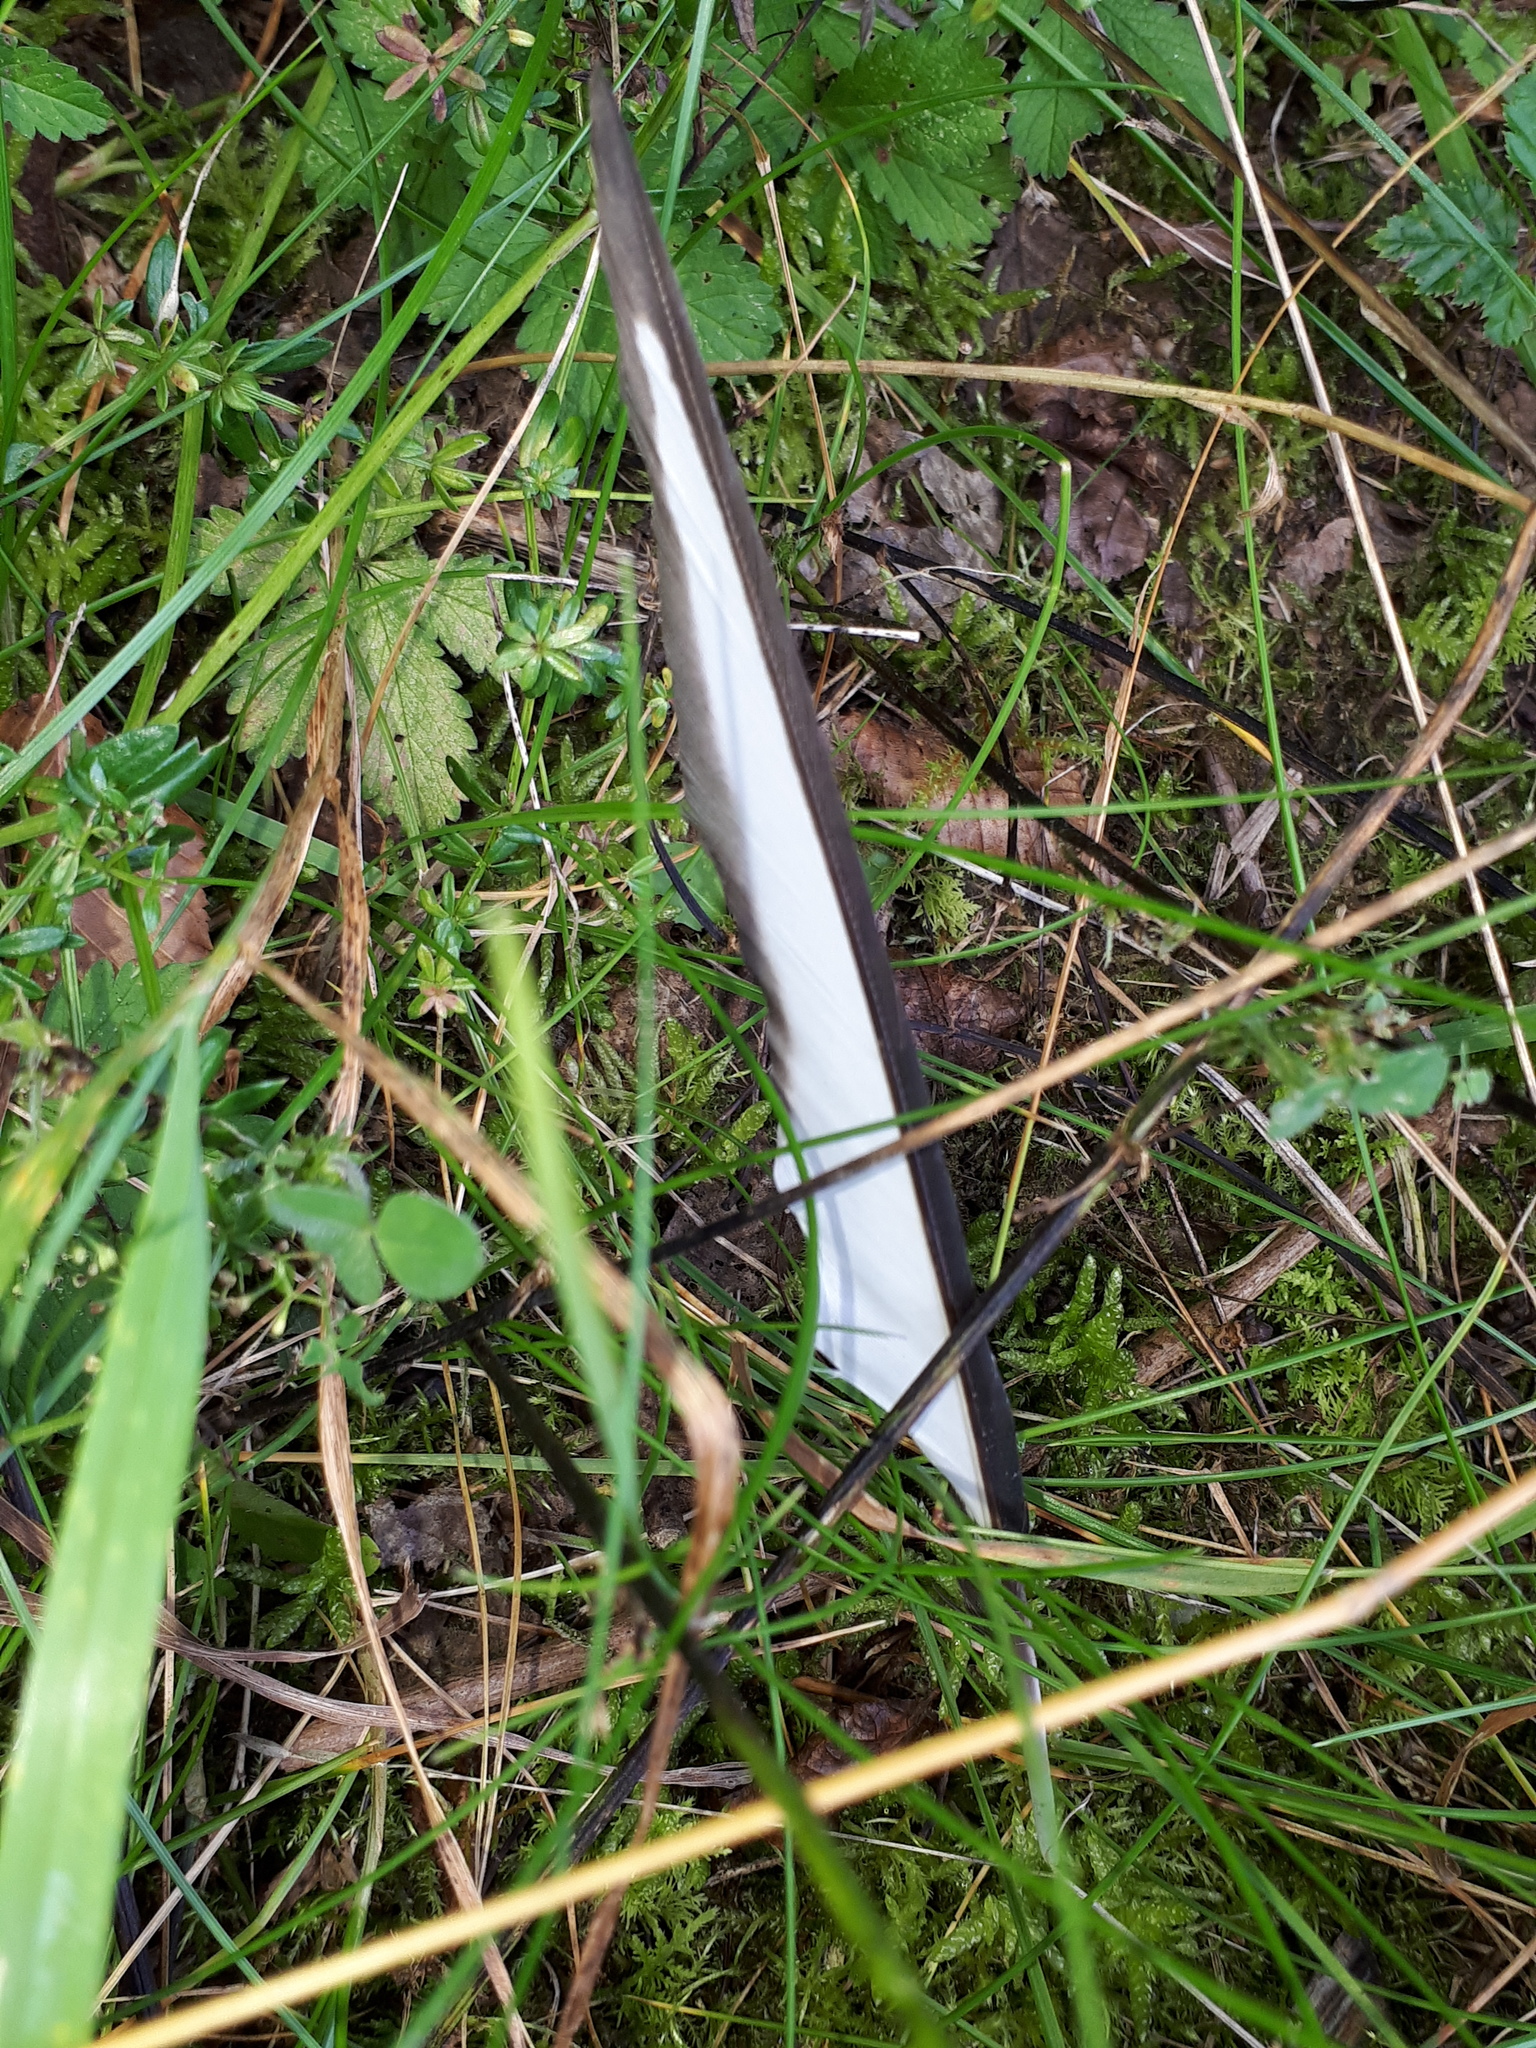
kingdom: Animalia
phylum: Chordata
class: Aves
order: Passeriformes
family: Corvidae
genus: Pica
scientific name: Pica pica
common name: Eurasian magpie
